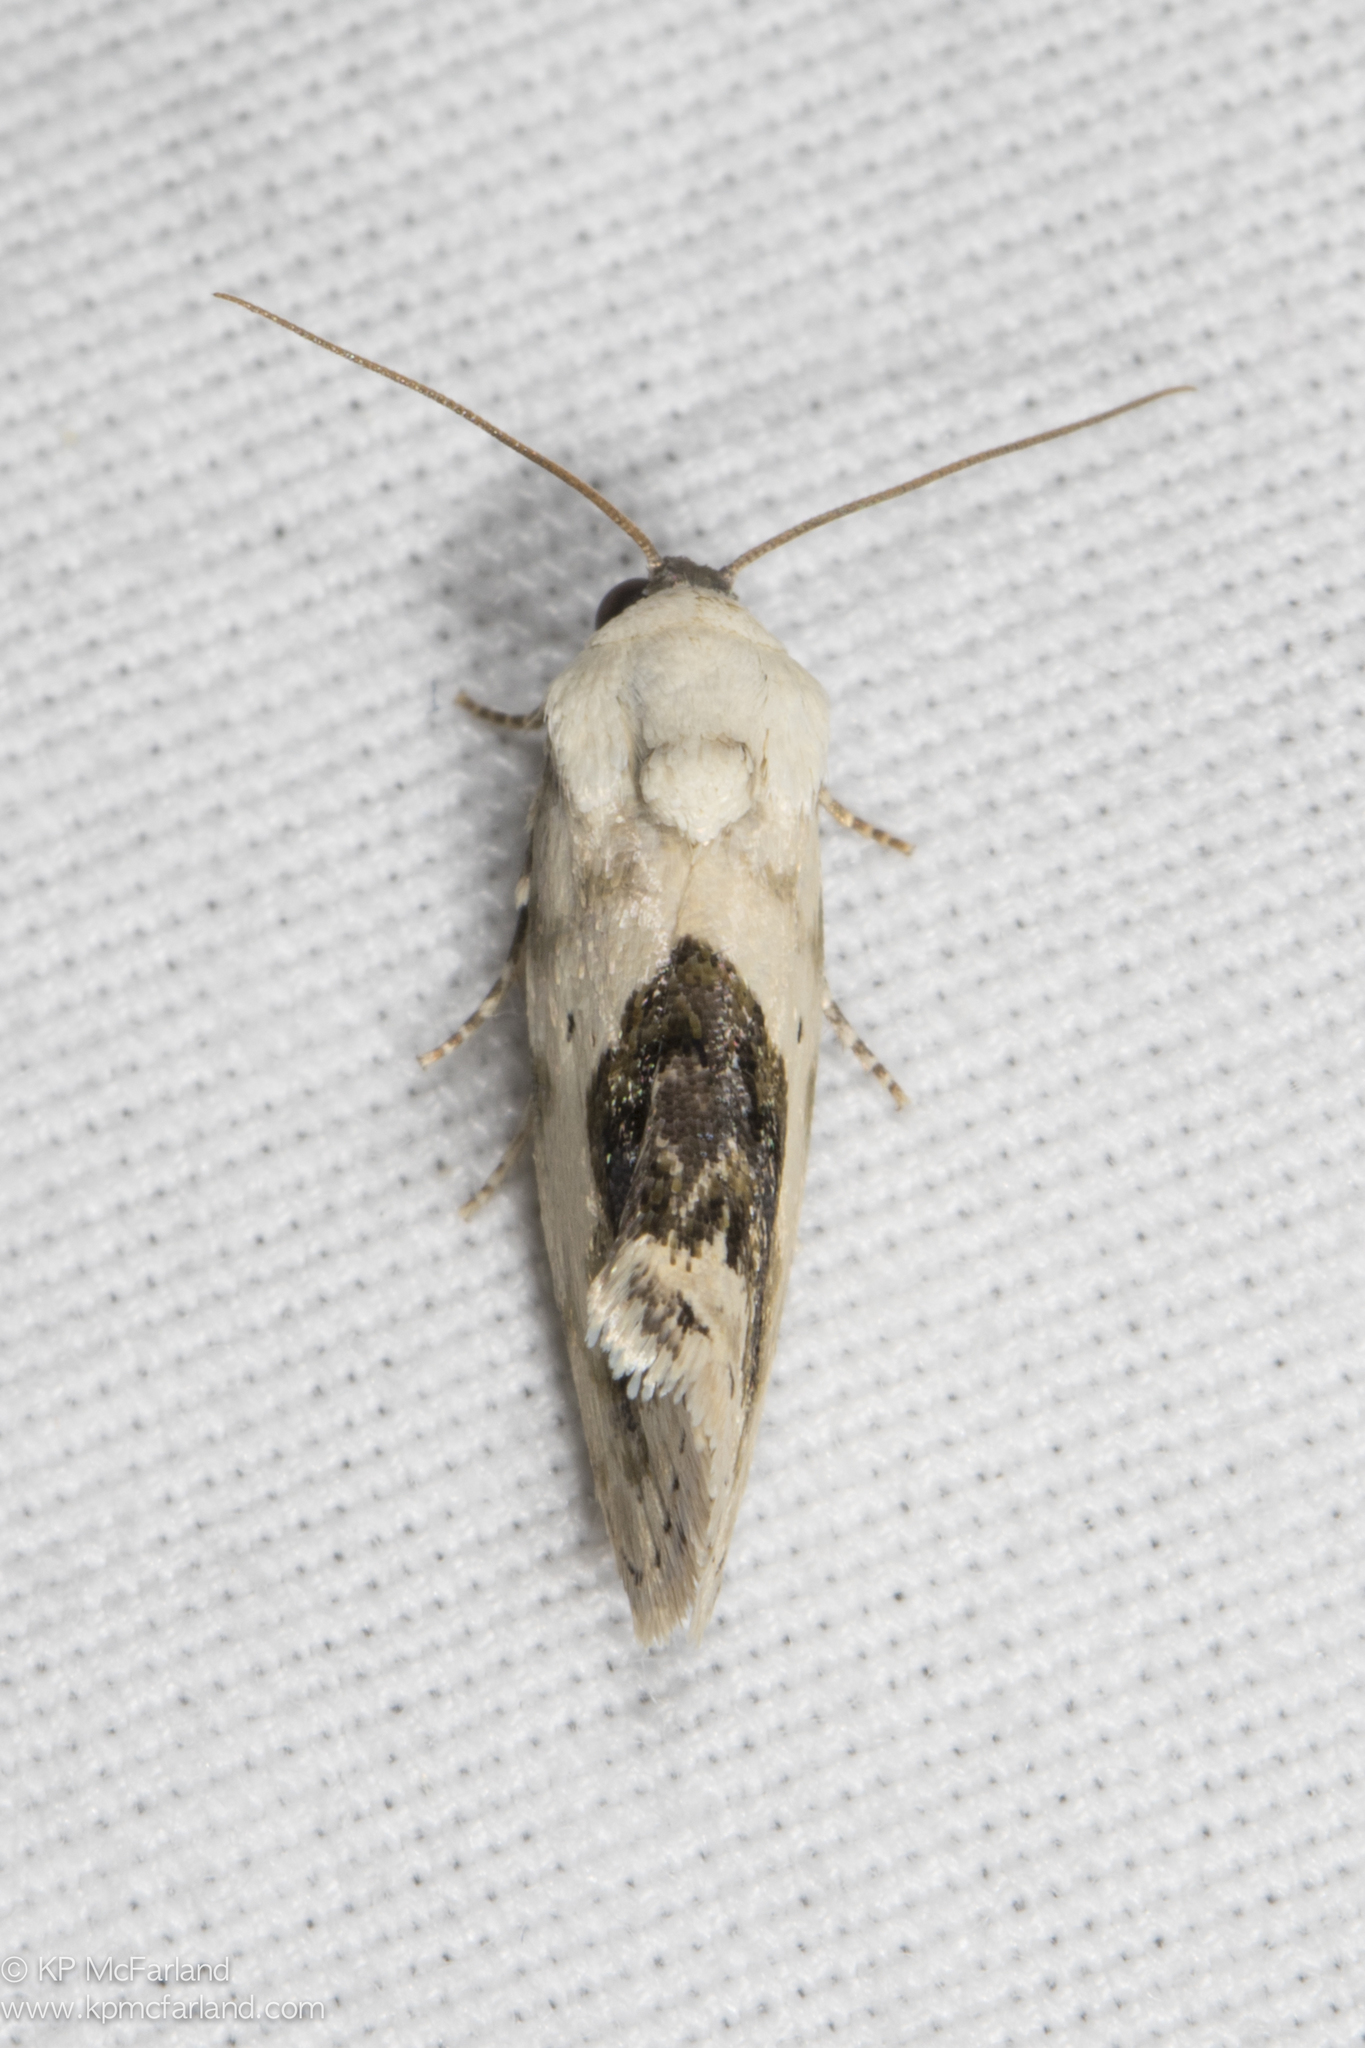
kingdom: Animalia
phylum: Arthropoda
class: Insecta
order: Lepidoptera
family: Noctuidae
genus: Acontia
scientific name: Acontia erastrioides
